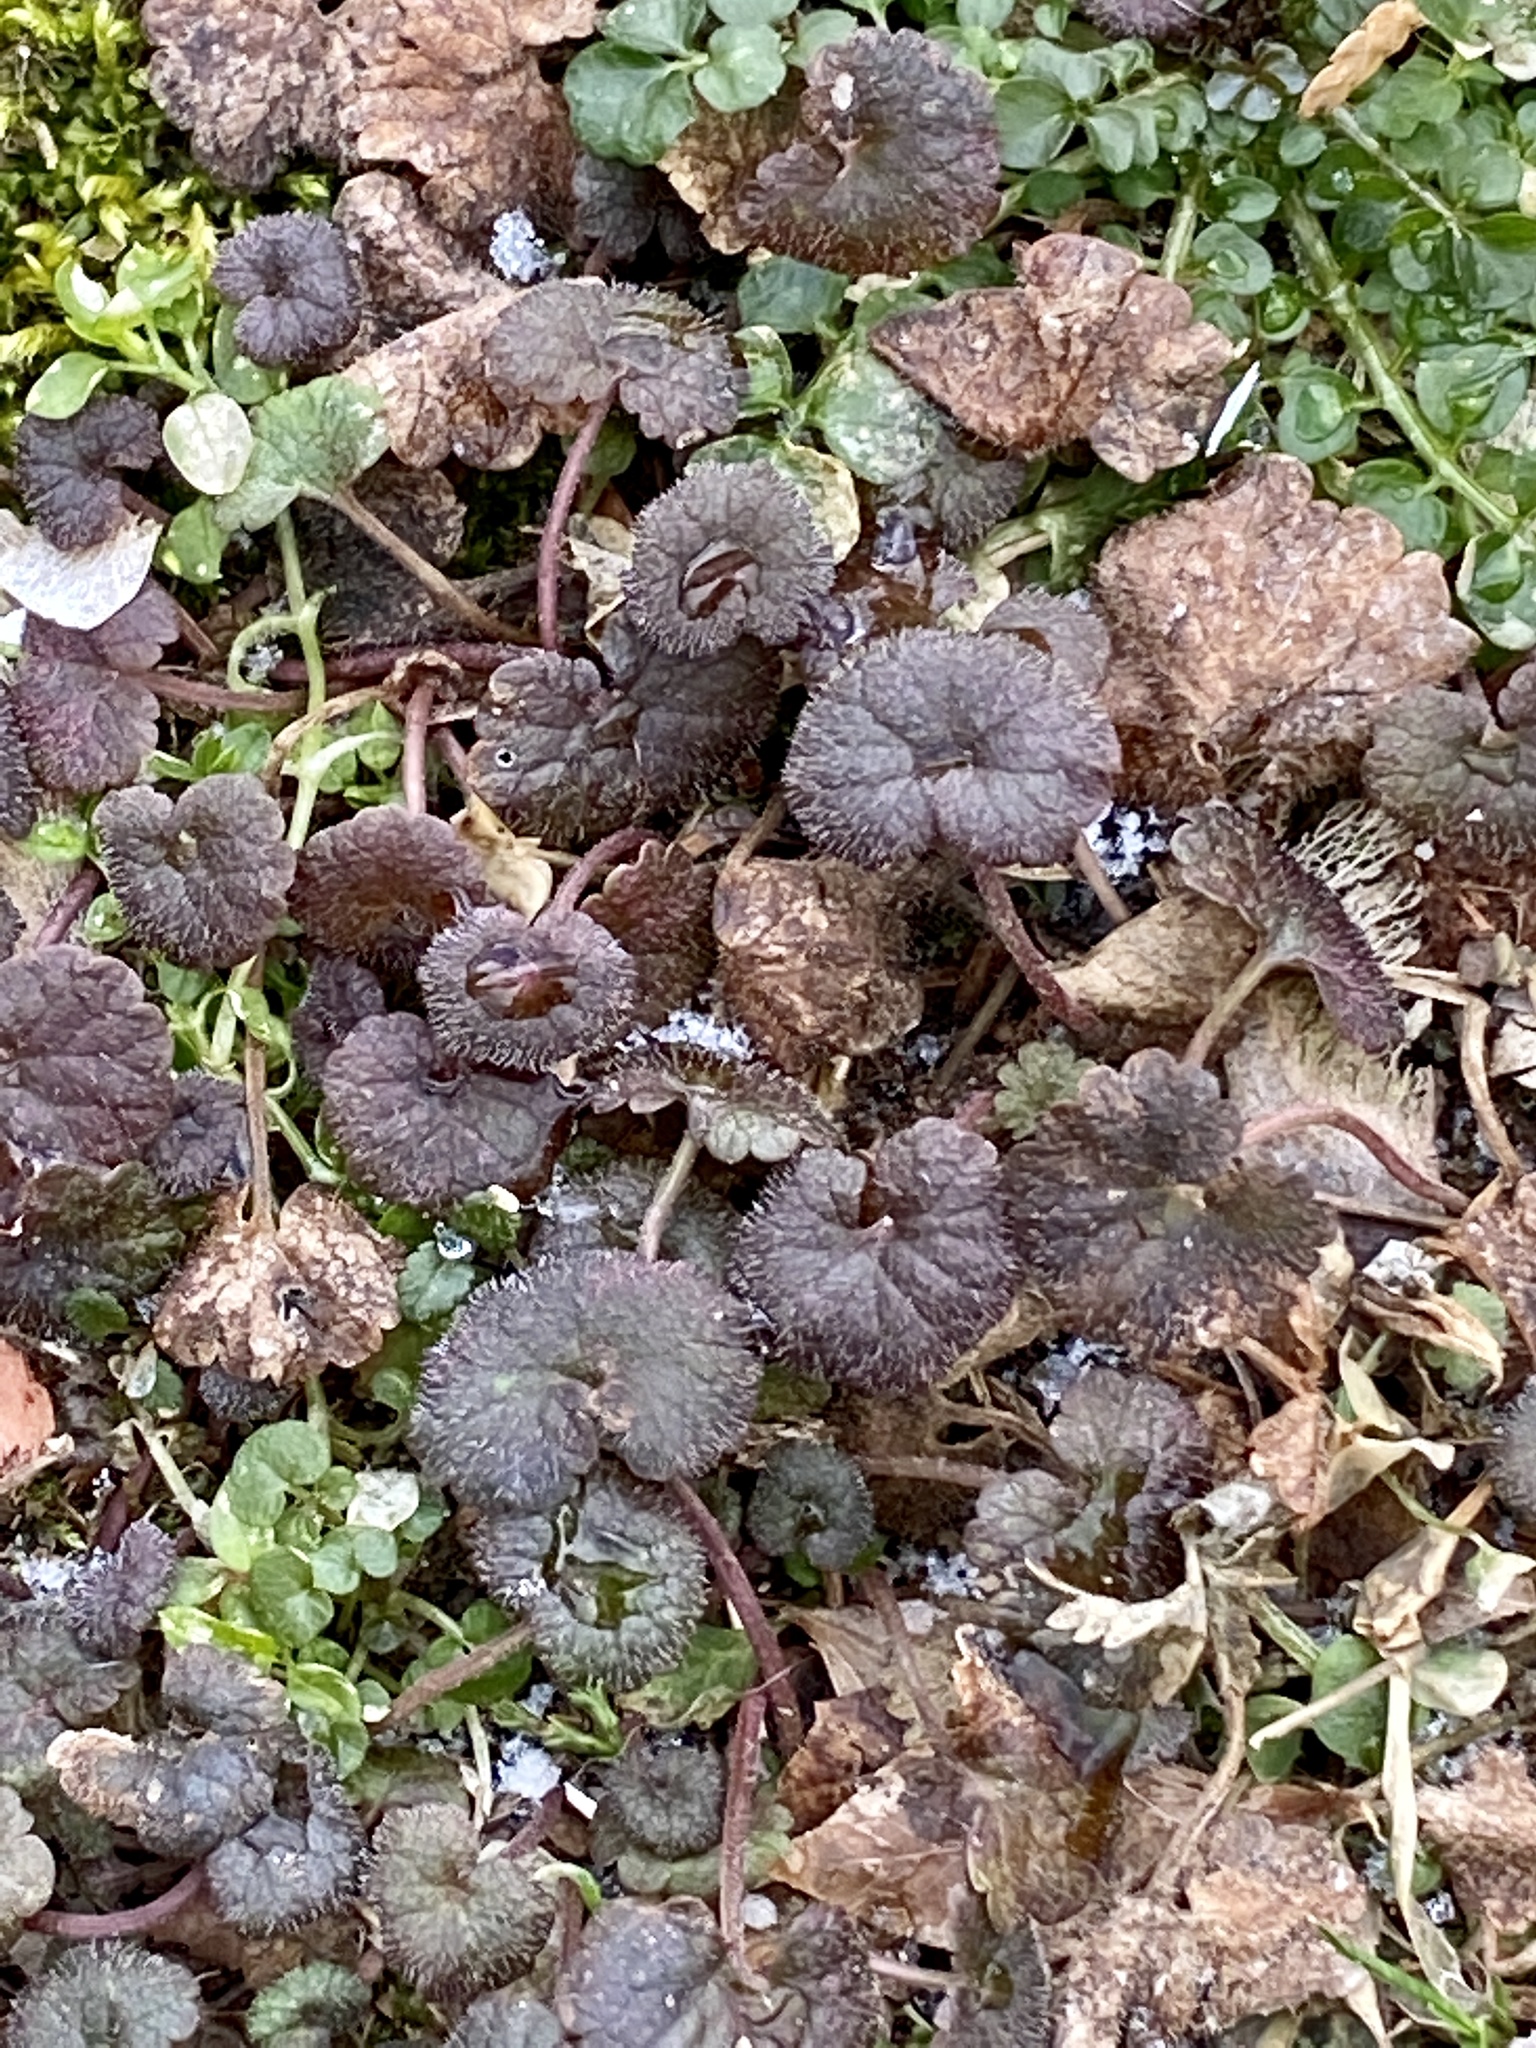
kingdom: Plantae
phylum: Tracheophyta
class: Magnoliopsida
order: Lamiales
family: Lamiaceae
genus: Glechoma
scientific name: Glechoma hederacea
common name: Ground ivy
